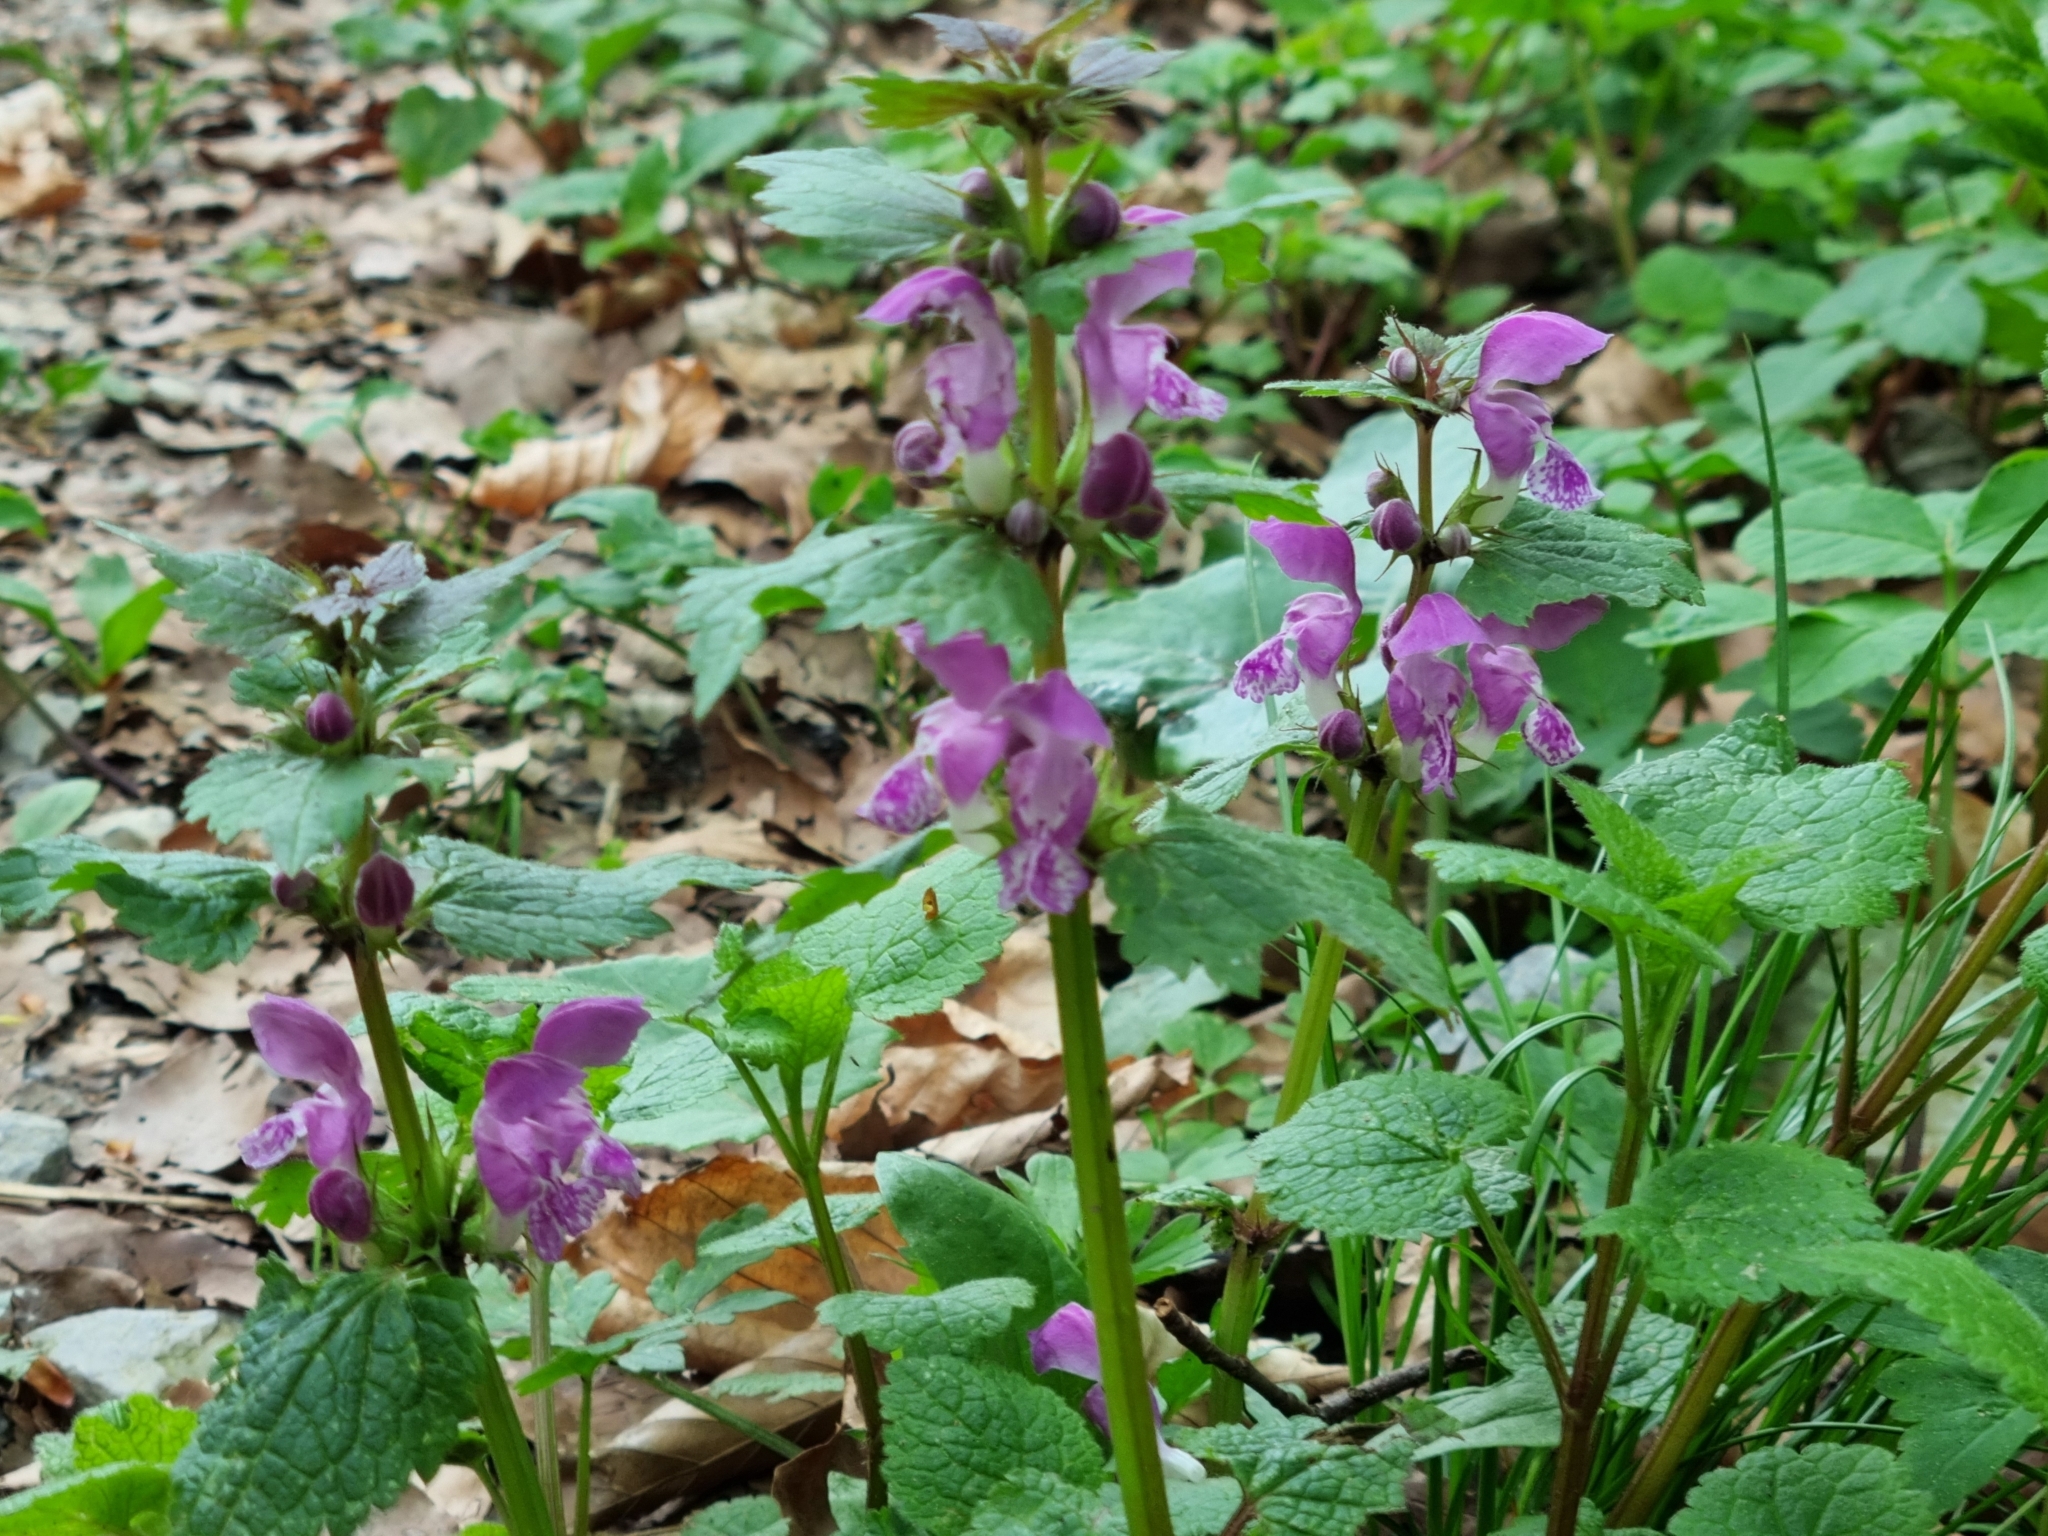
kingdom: Plantae
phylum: Tracheophyta
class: Magnoliopsida
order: Lamiales
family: Lamiaceae
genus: Lamium
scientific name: Lamium maculatum
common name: Spotted dead-nettle
